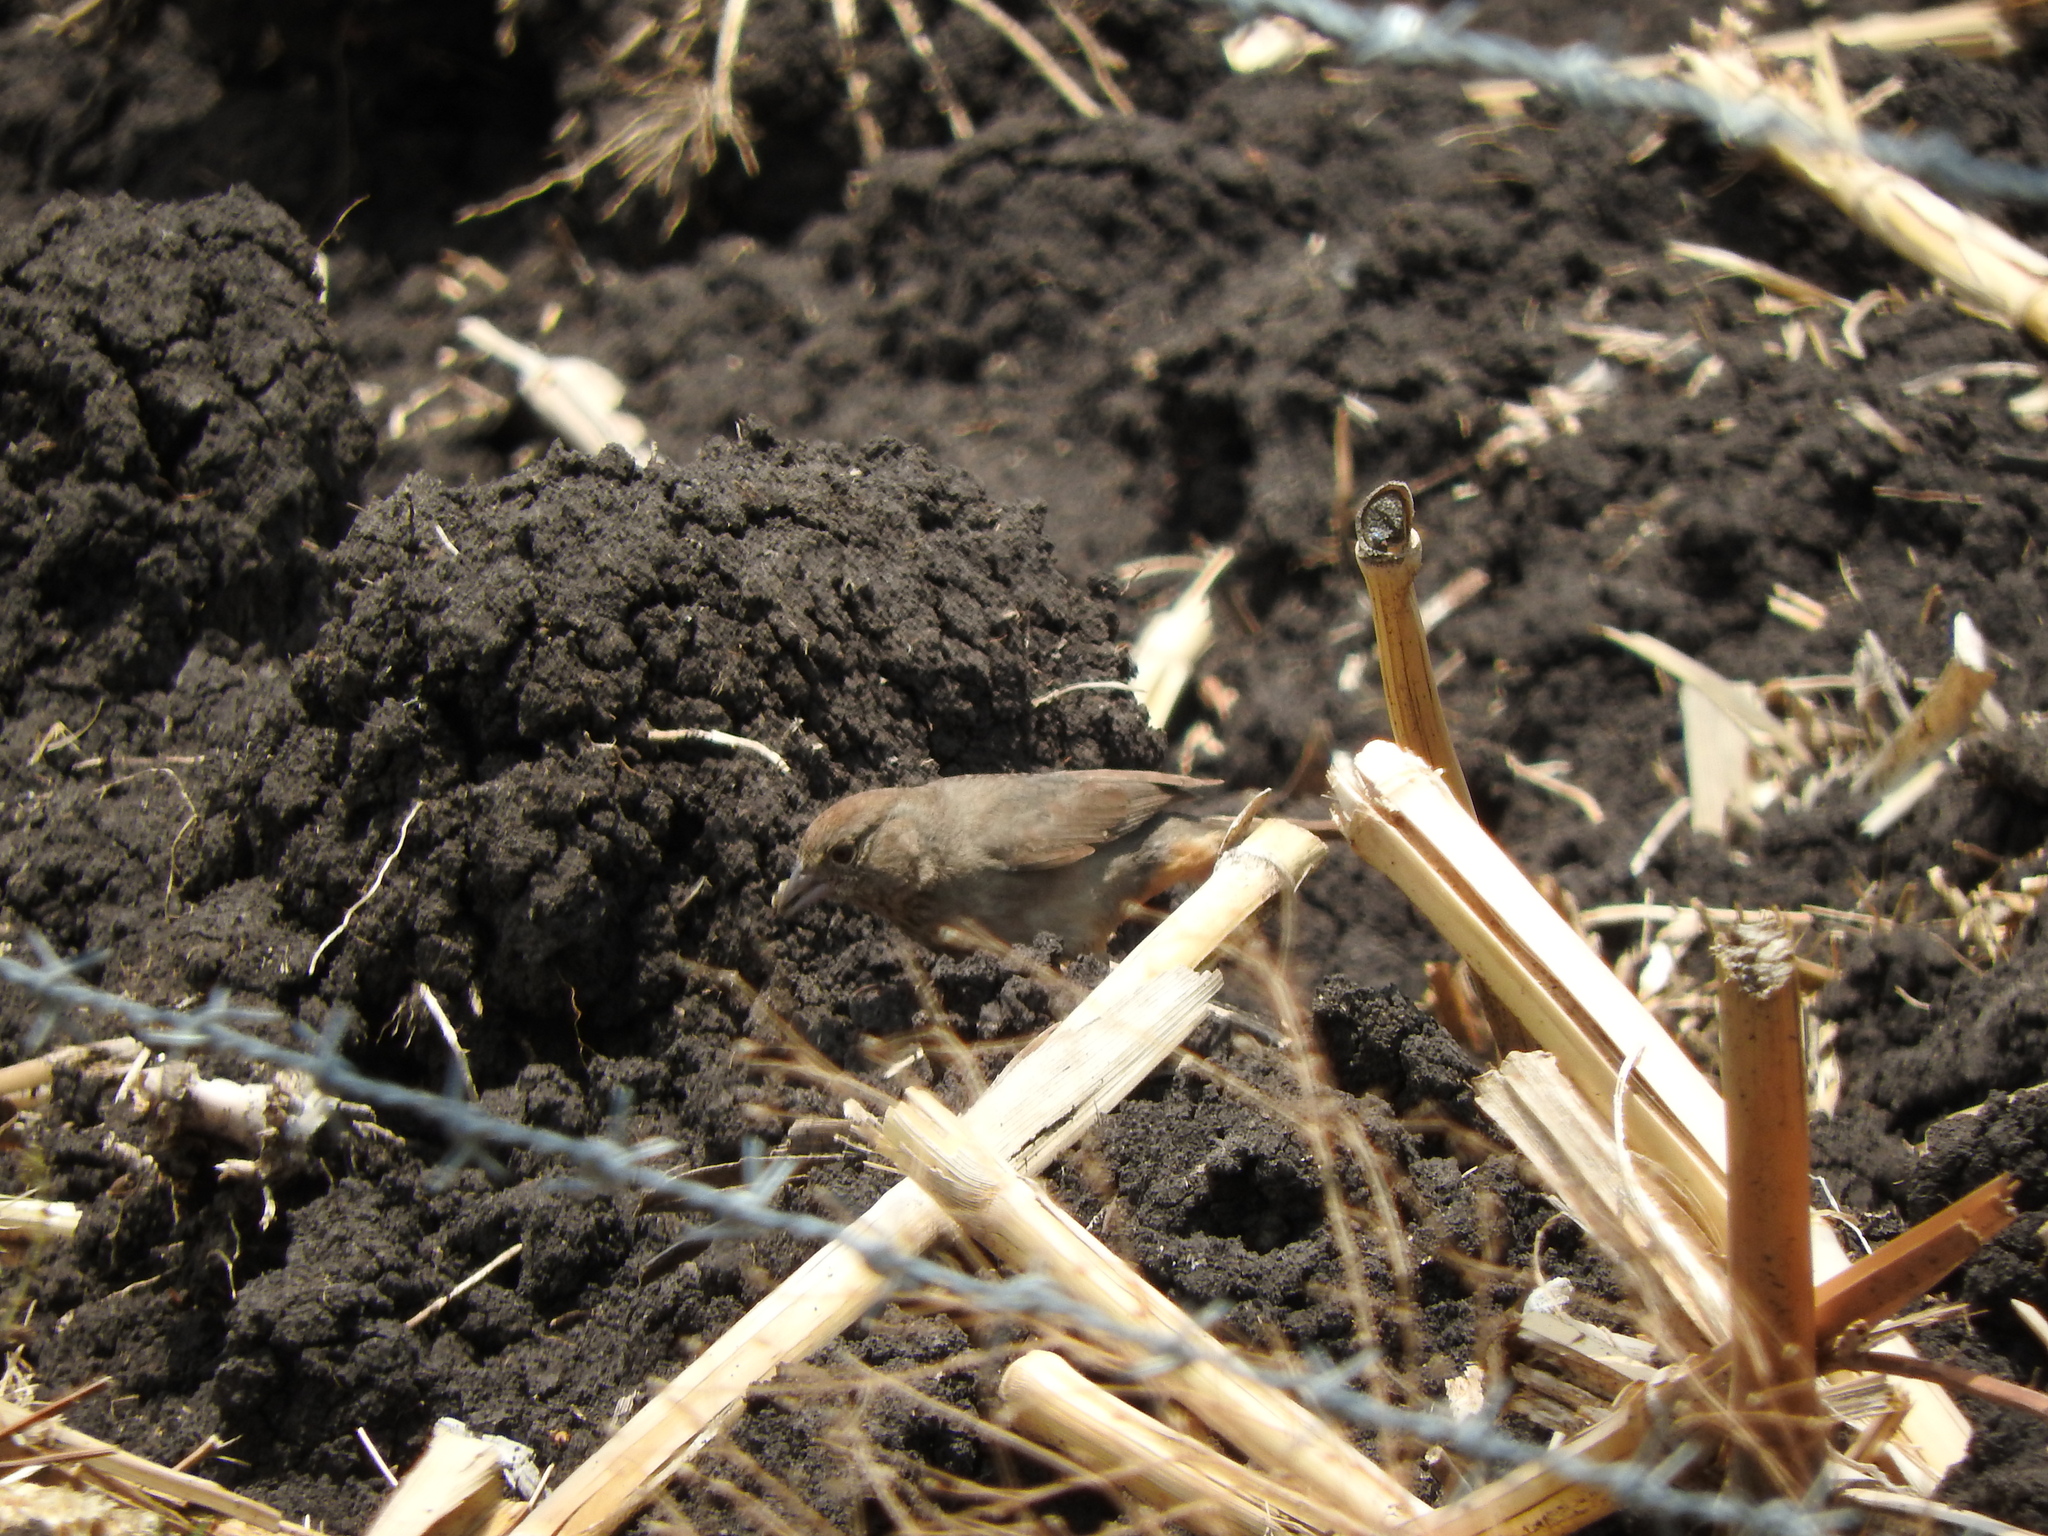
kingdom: Animalia
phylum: Chordata
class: Aves
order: Passeriformes
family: Passerellidae
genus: Melozone
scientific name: Melozone fusca
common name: Canyon towhee
